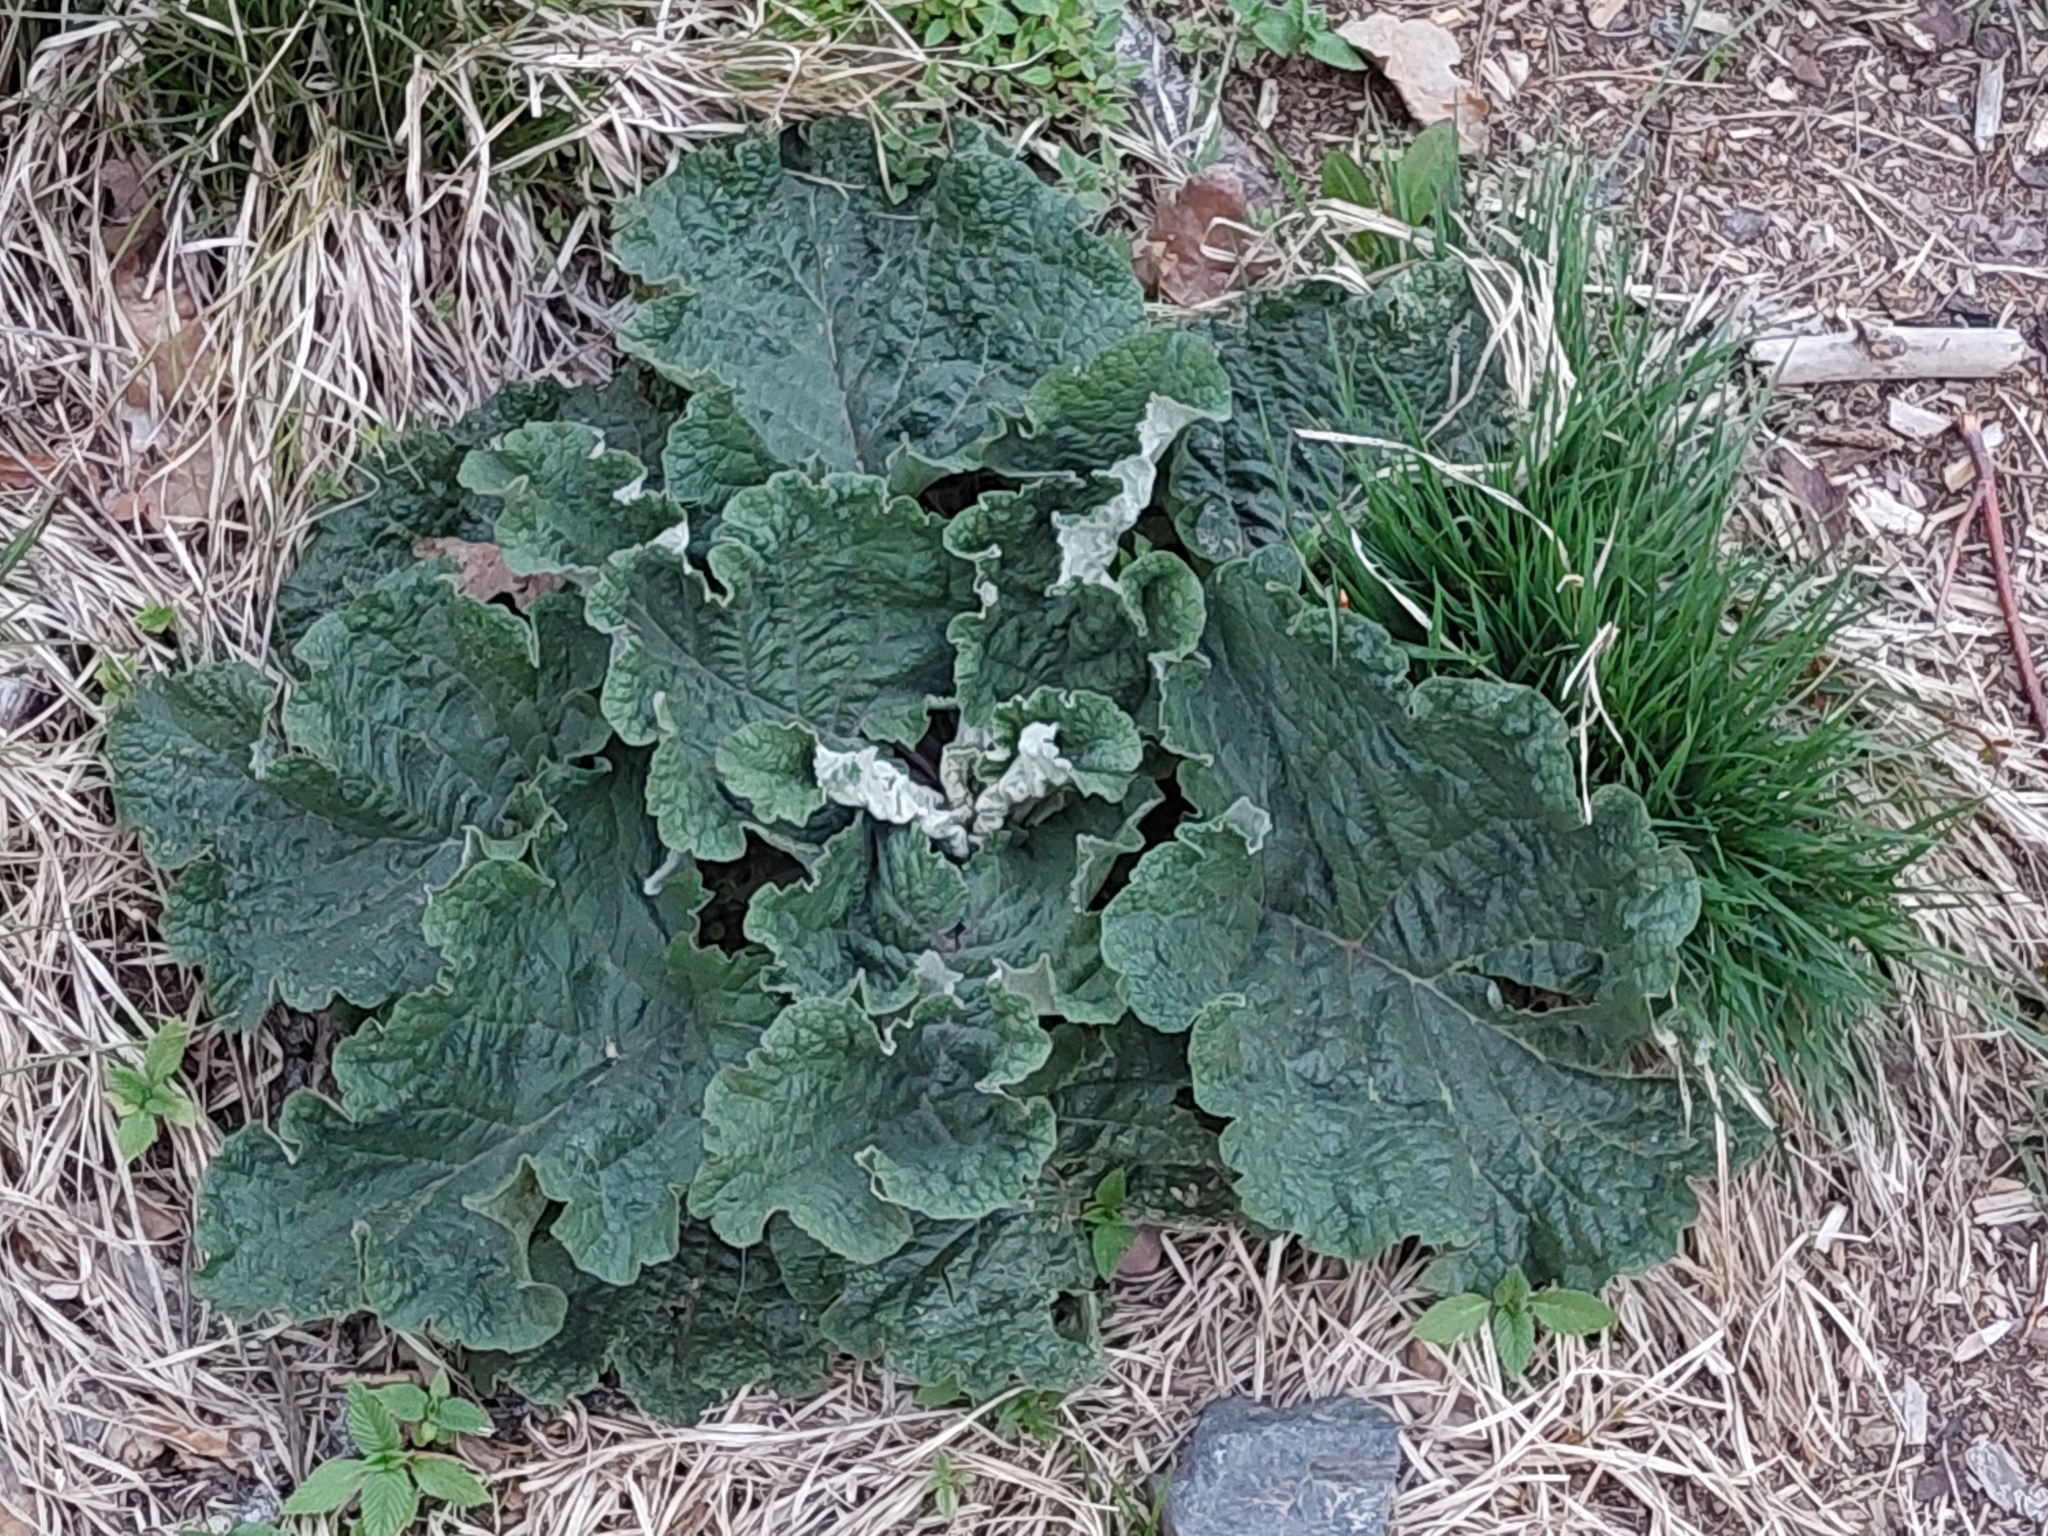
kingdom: Plantae
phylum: Tracheophyta
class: Magnoliopsida
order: Asterales
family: Asteraceae
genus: Arctium
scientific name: Arctium
